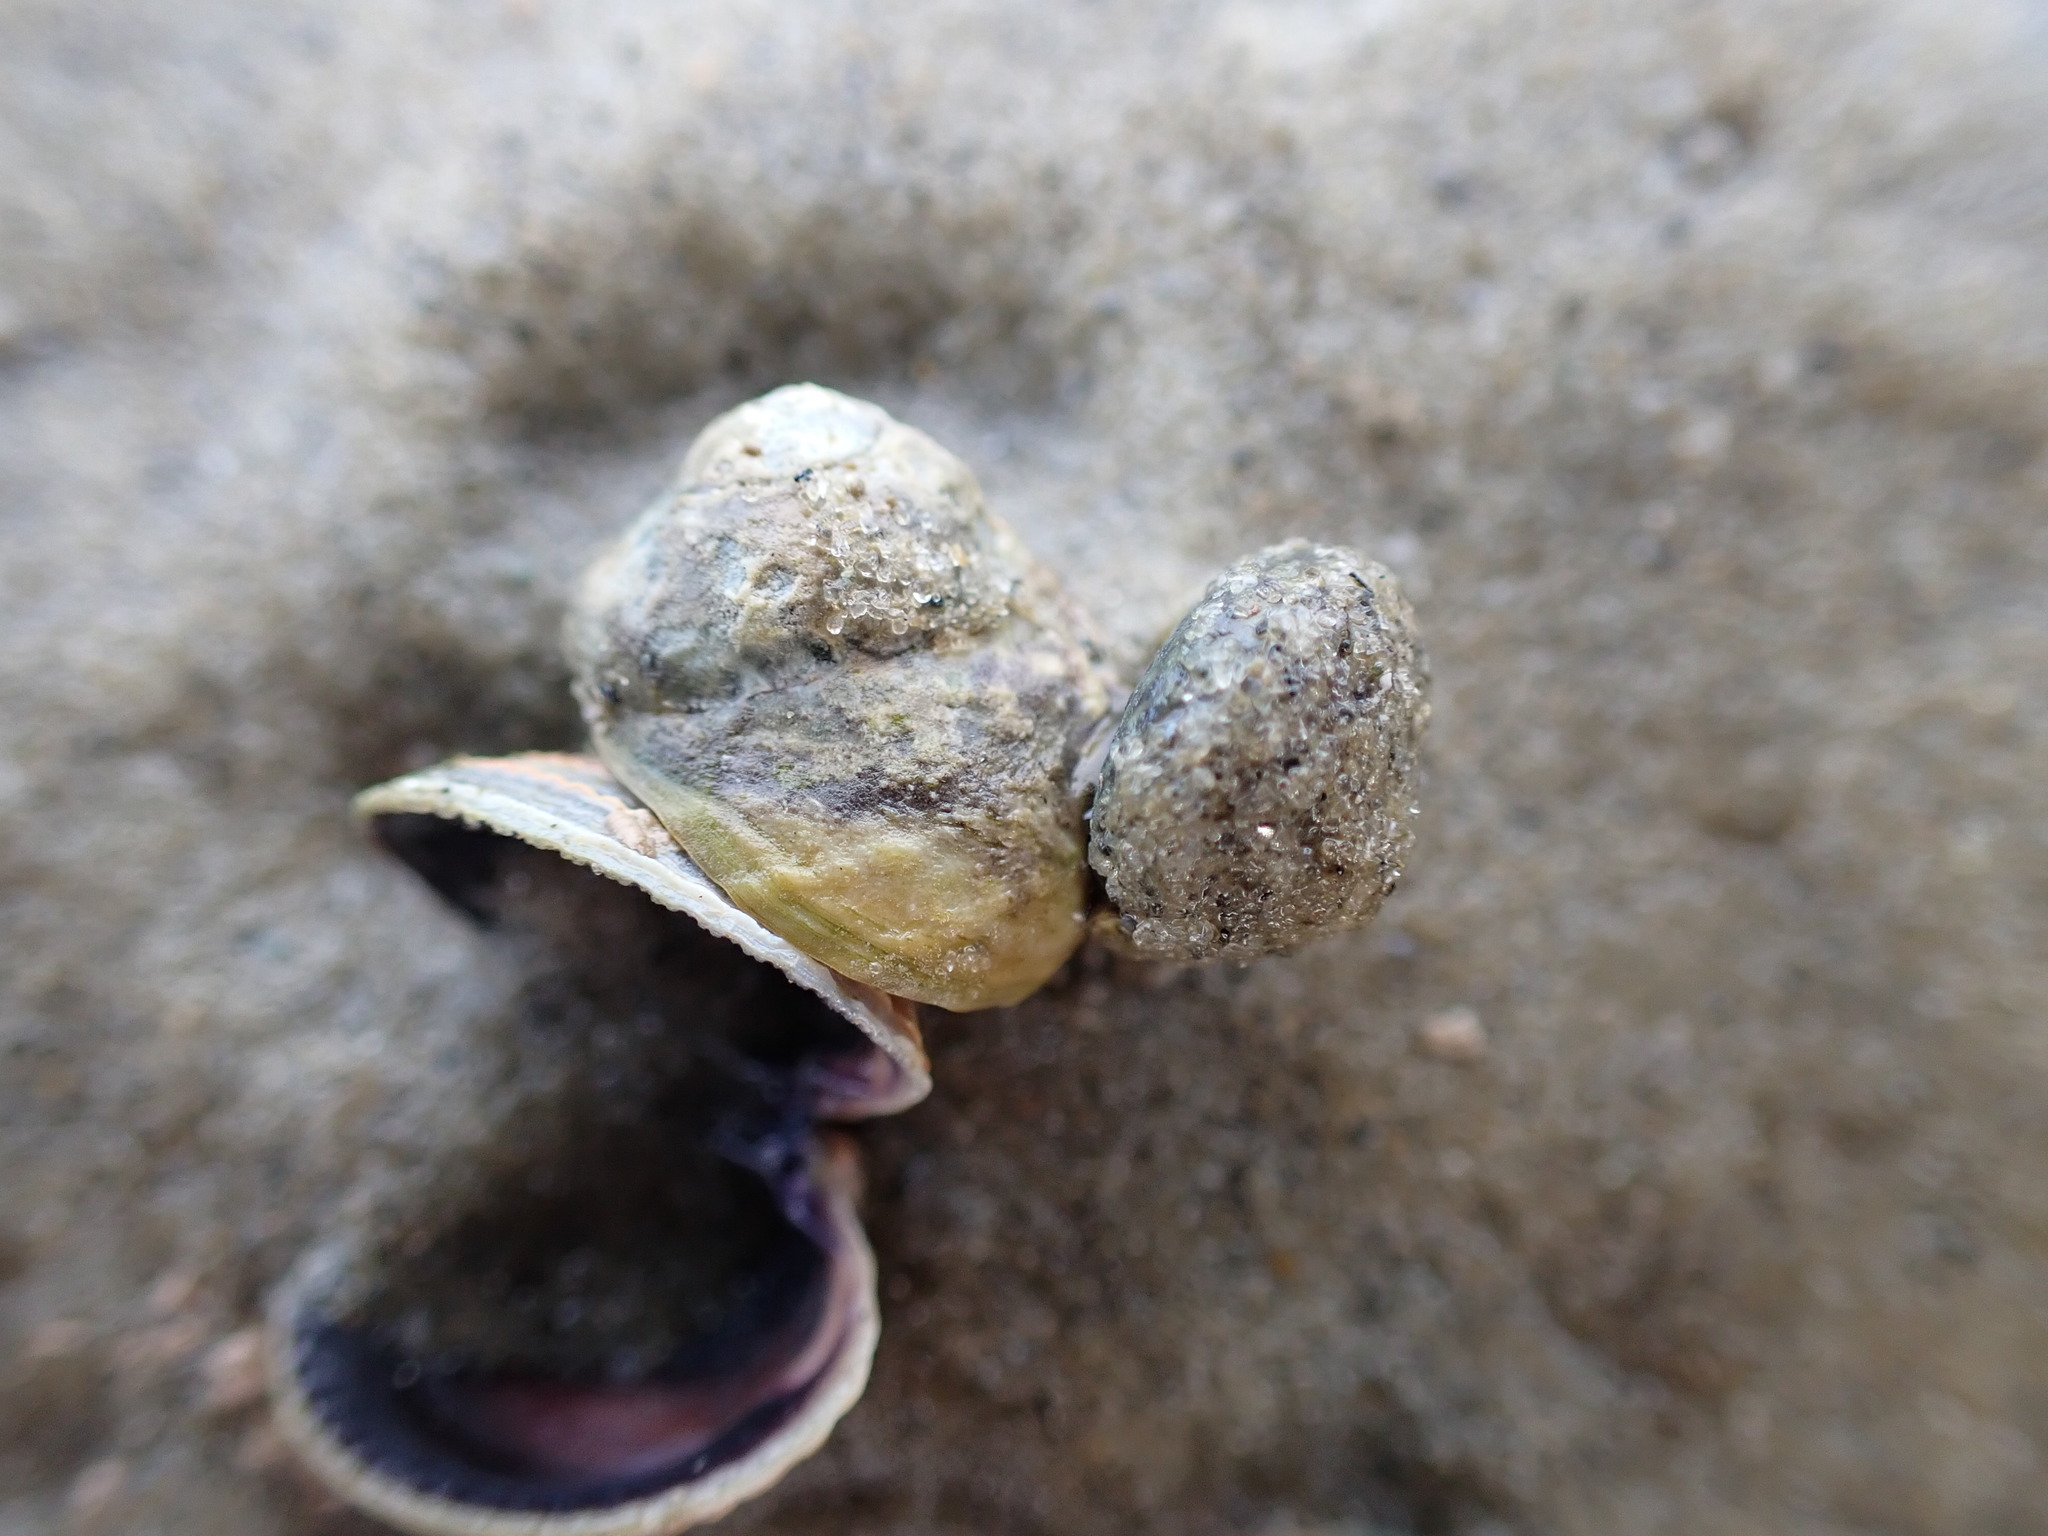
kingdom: Animalia
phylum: Mollusca
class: Gastropoda
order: Trochida
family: Trochidae
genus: Diloma
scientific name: Diloma subrostratum
